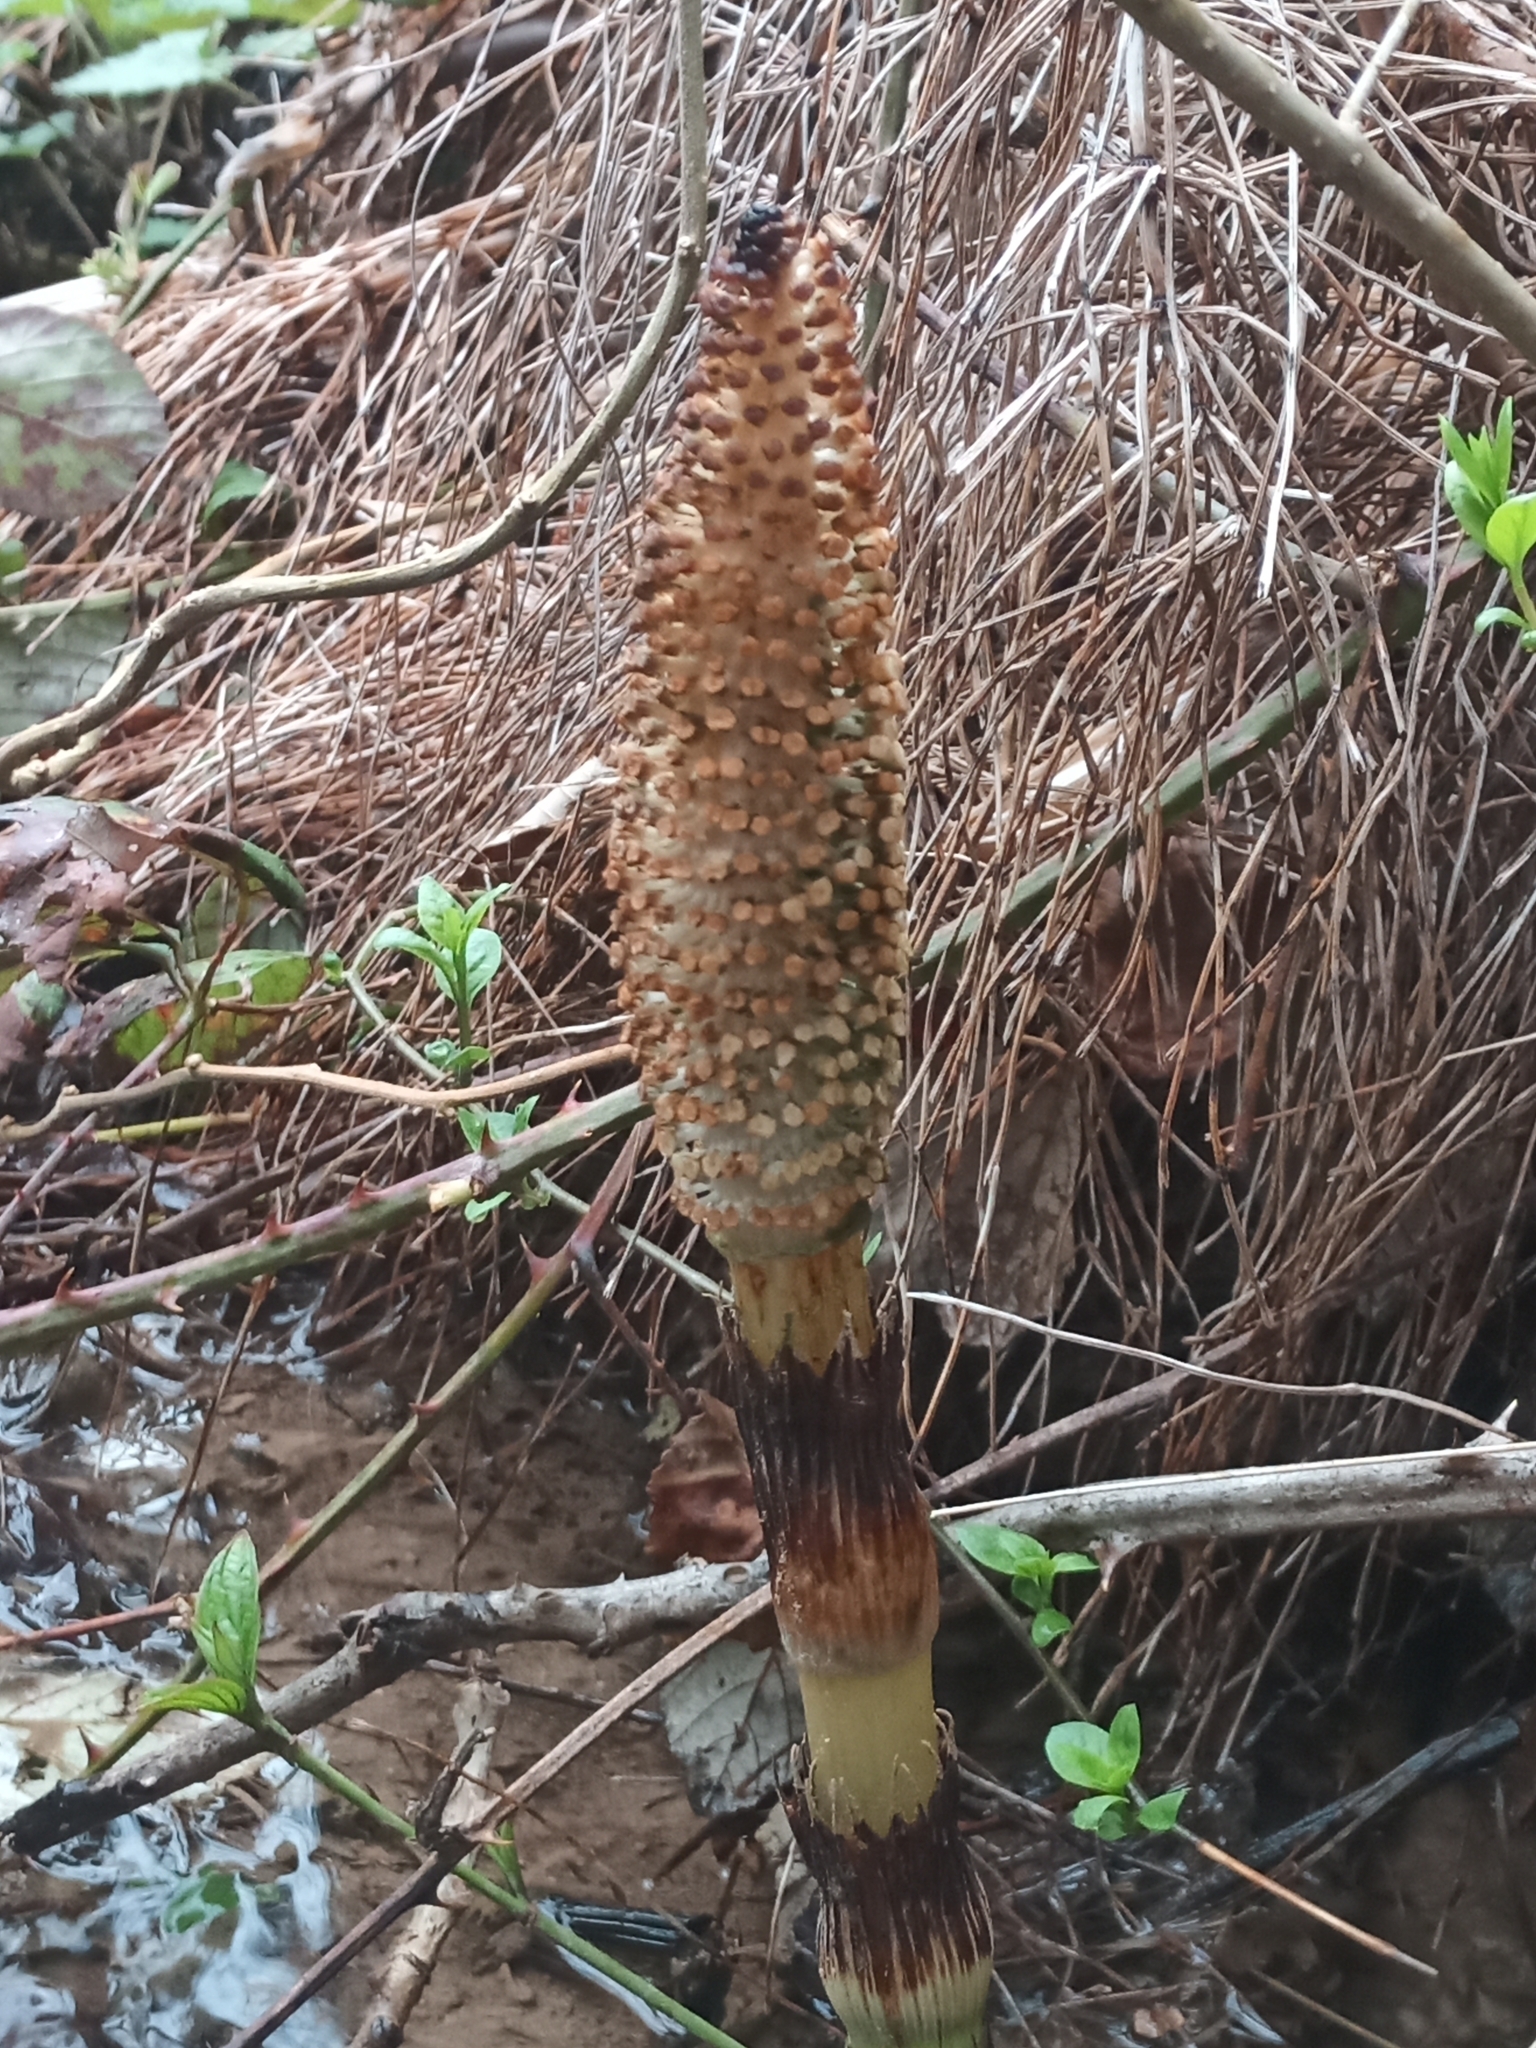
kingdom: Plantae
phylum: Tracheophyta
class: Polypodiopsida
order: Equisetales
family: Equisetaceae
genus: Equisetum
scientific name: Equisetum telmateia
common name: Great horsetail
